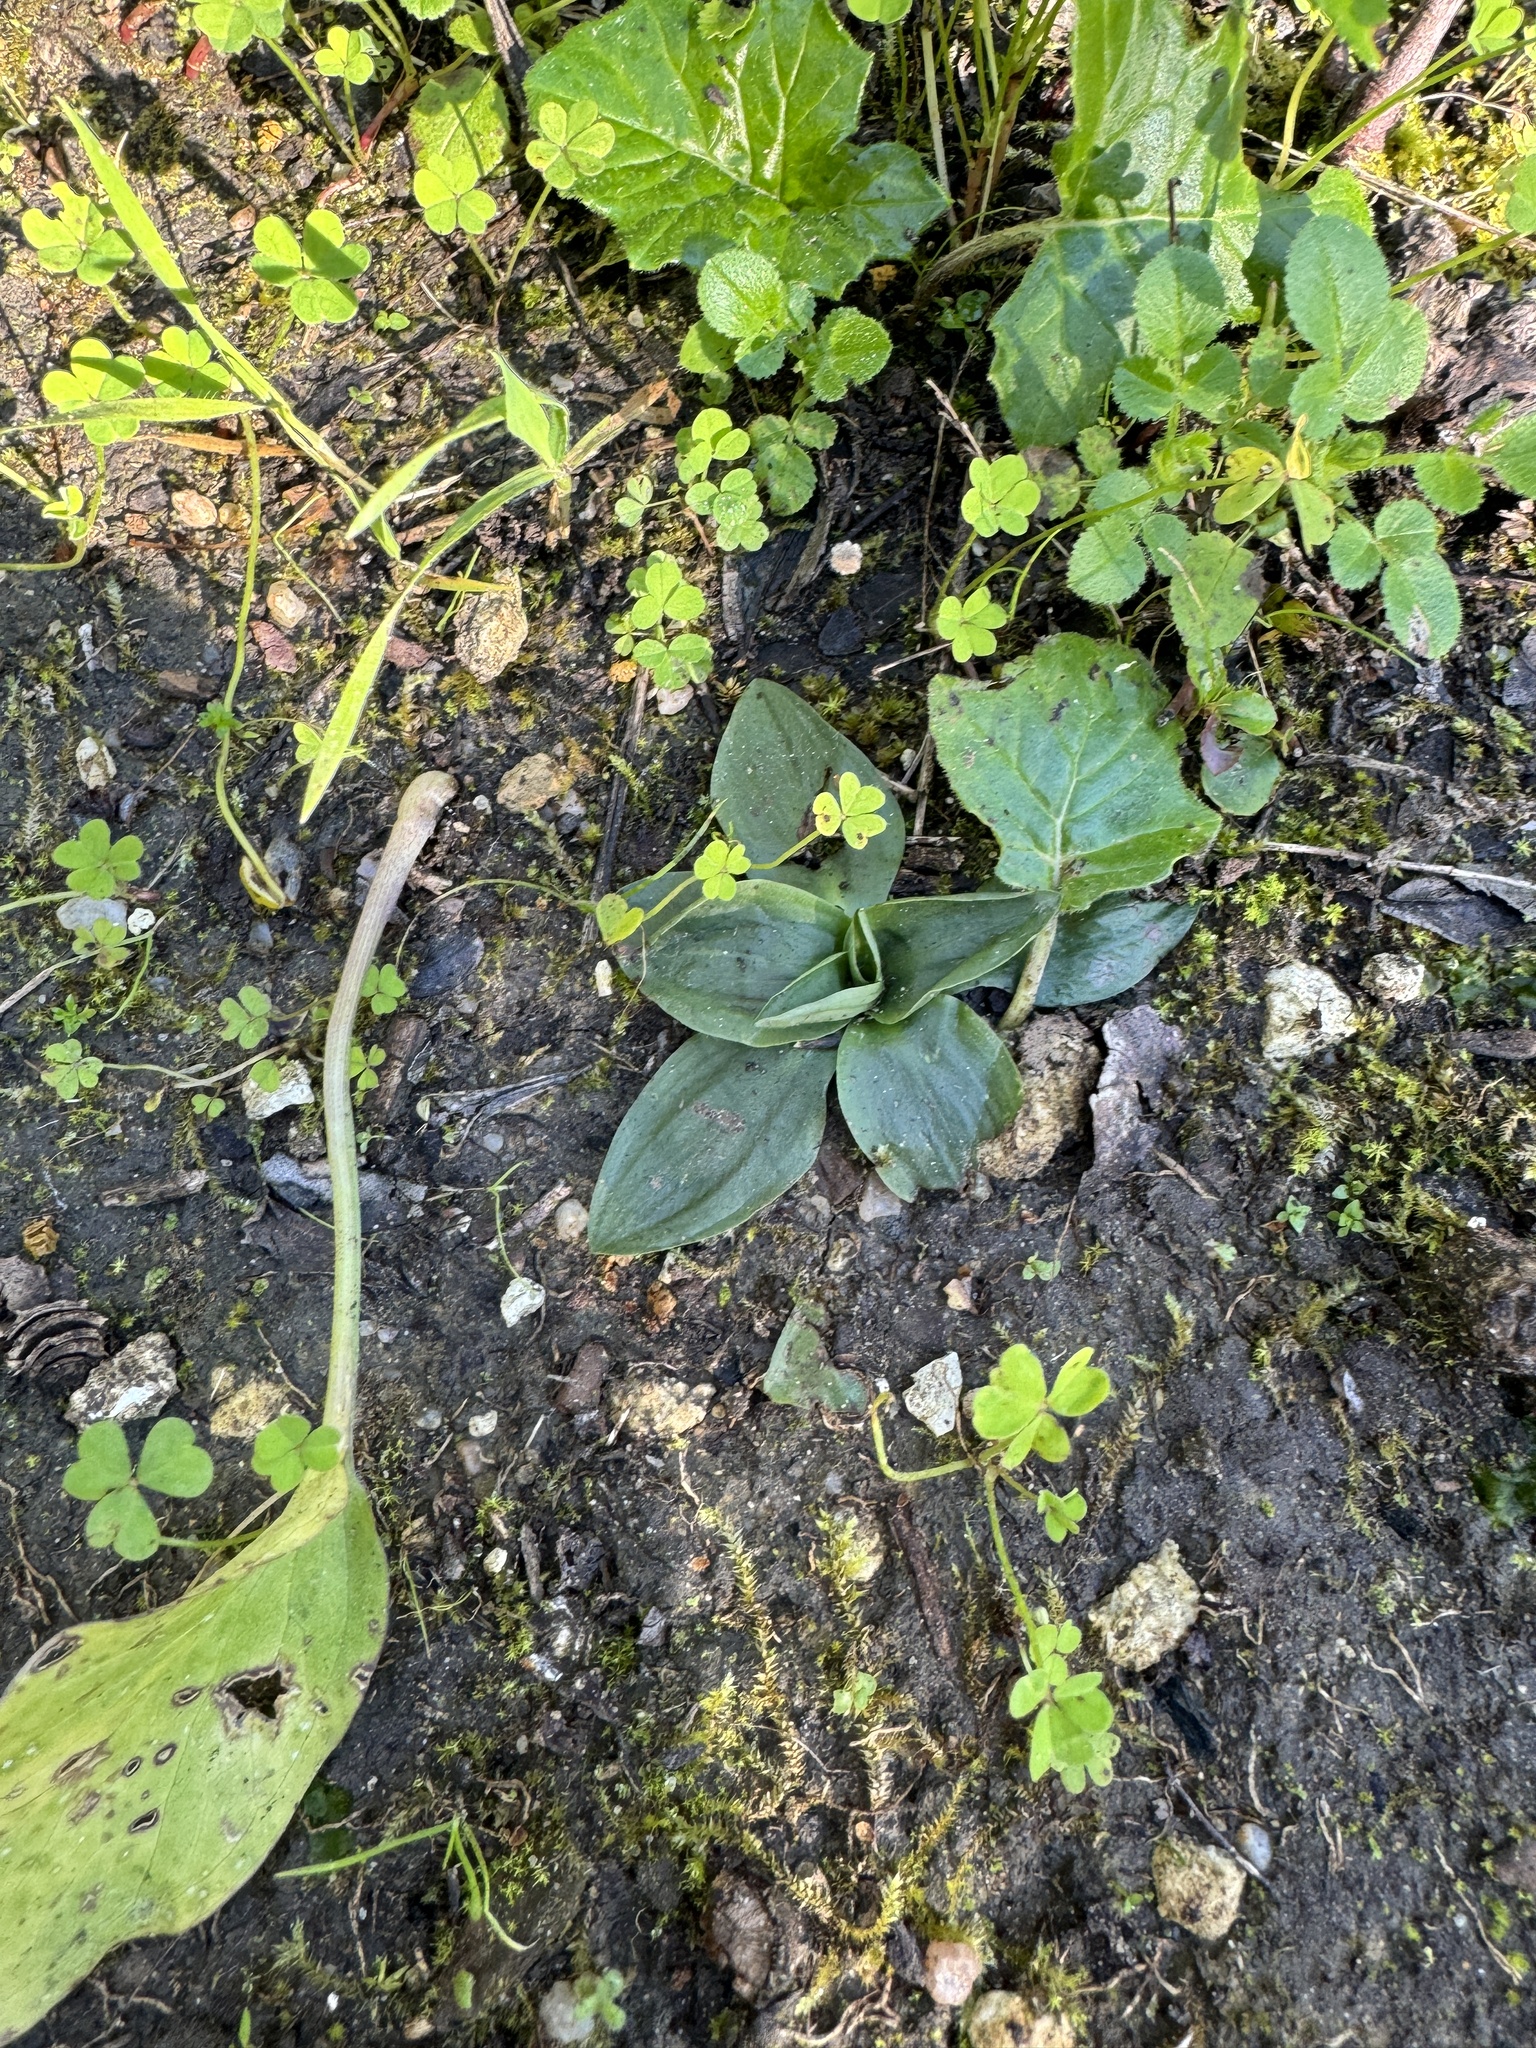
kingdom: Plantae
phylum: Tracheophyta
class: Liliopsida
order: Asparagales
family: Orchidaceae
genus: Spiranthes
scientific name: Spiranthes spiralis
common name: Autumn lady's-tresses
